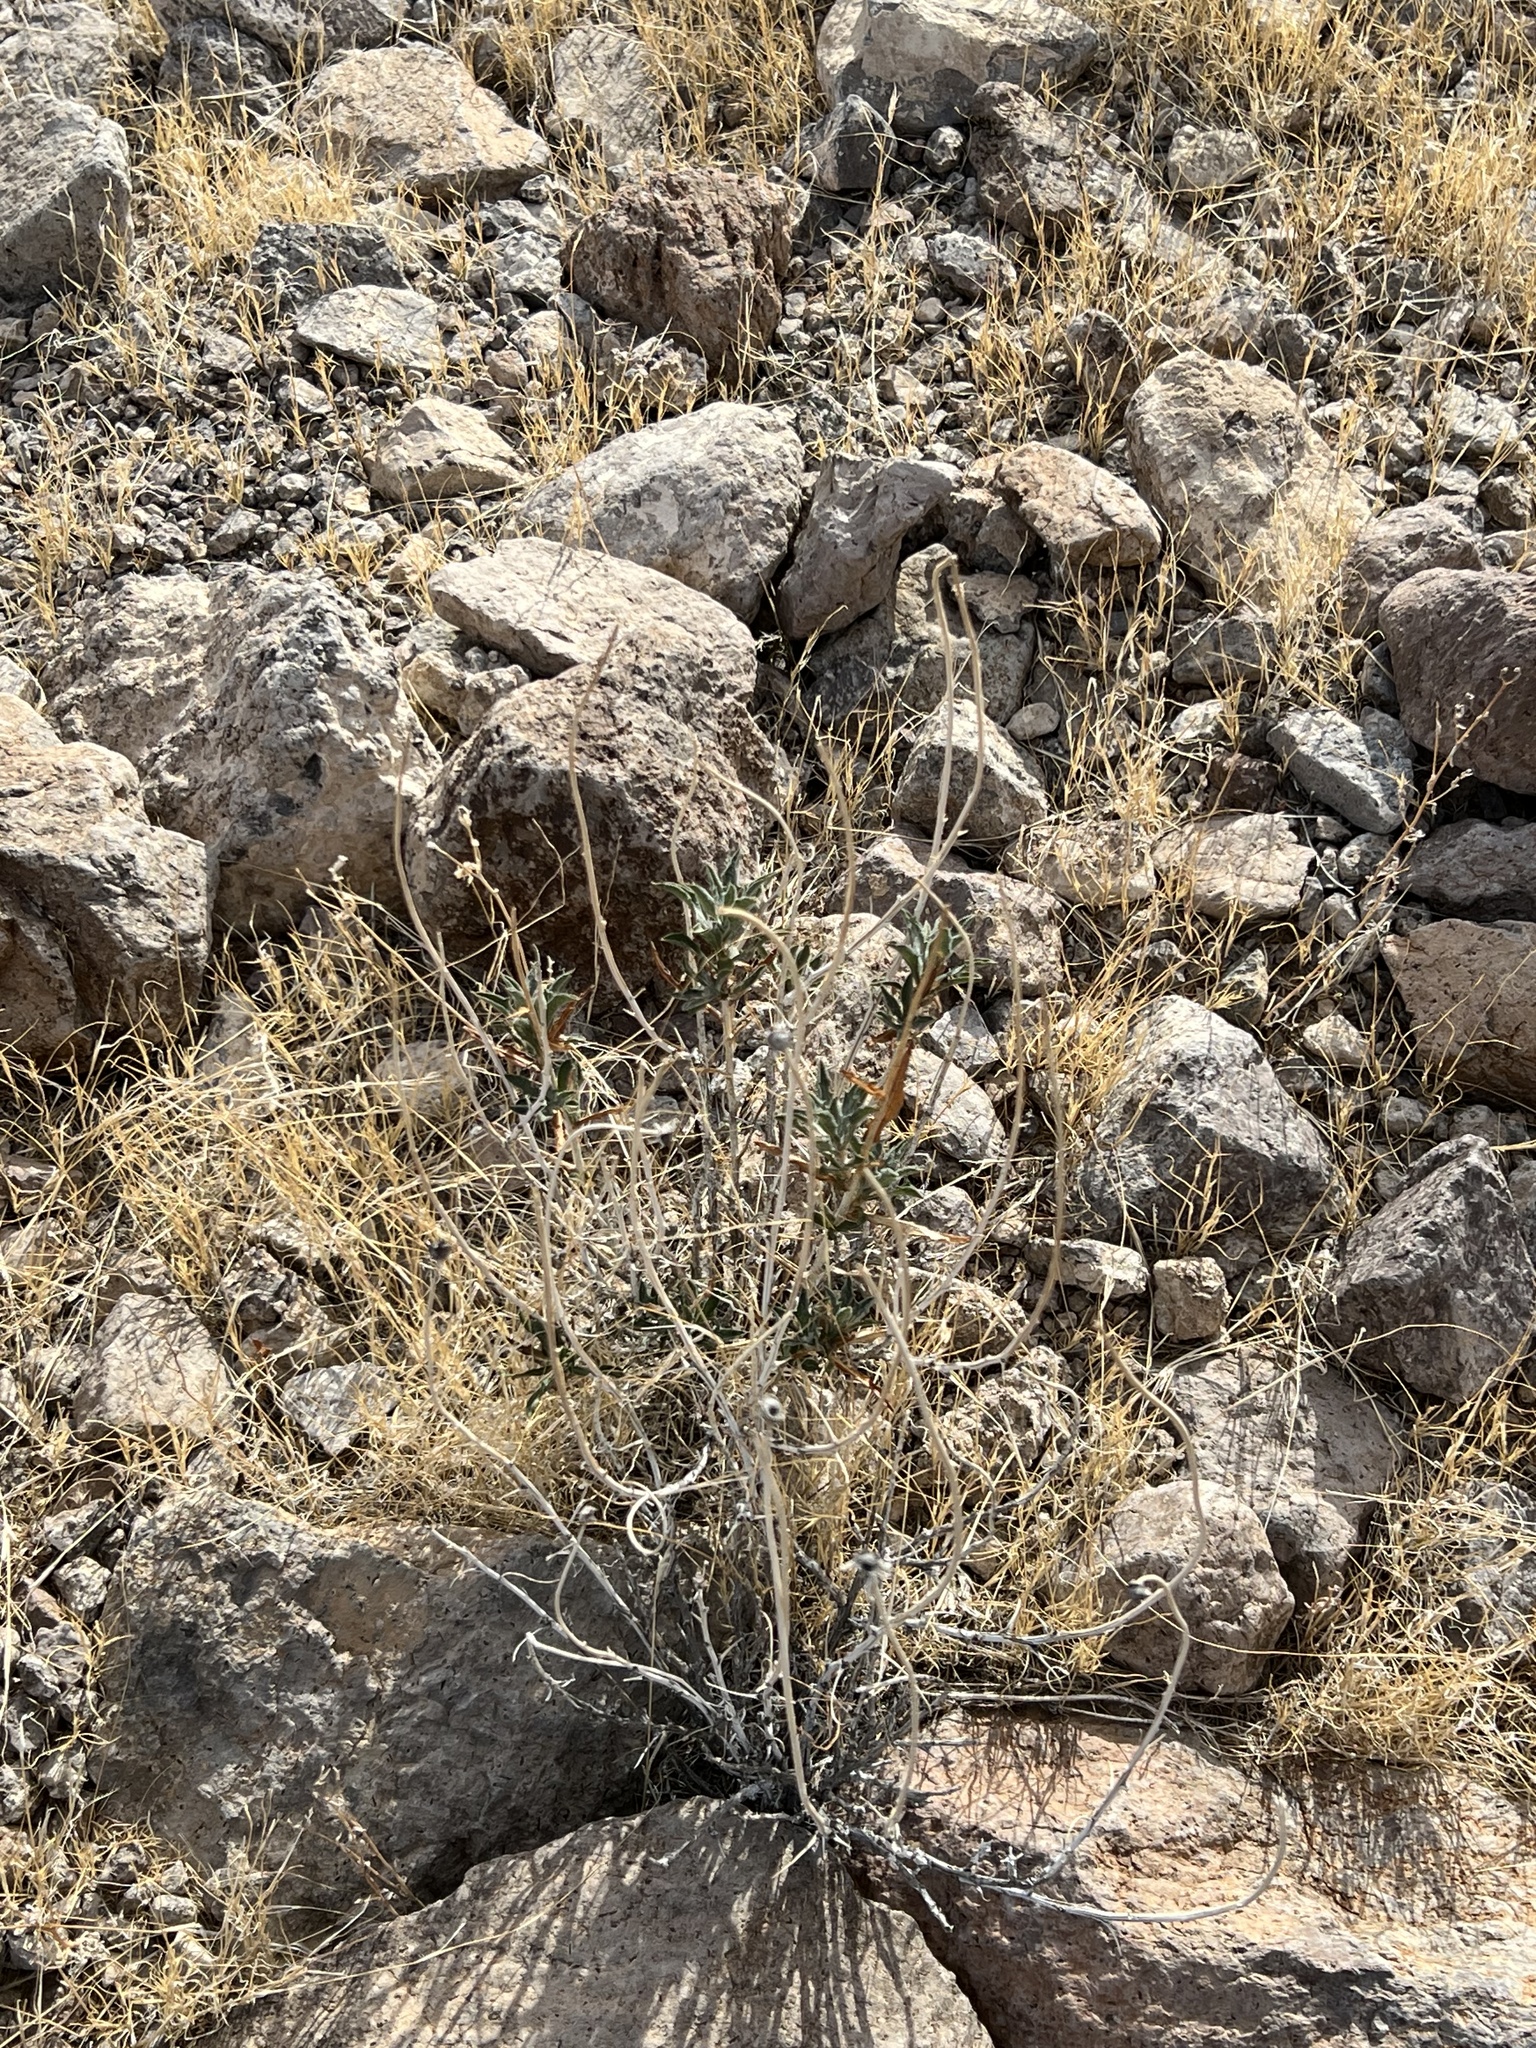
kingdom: Plantae
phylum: Tracheophyta
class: Magnoliopsida
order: Asterales
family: Asteraceae
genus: Xylorhiza
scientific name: Xylorhiza tortifolia
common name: Hurt-leaf woody-aster
